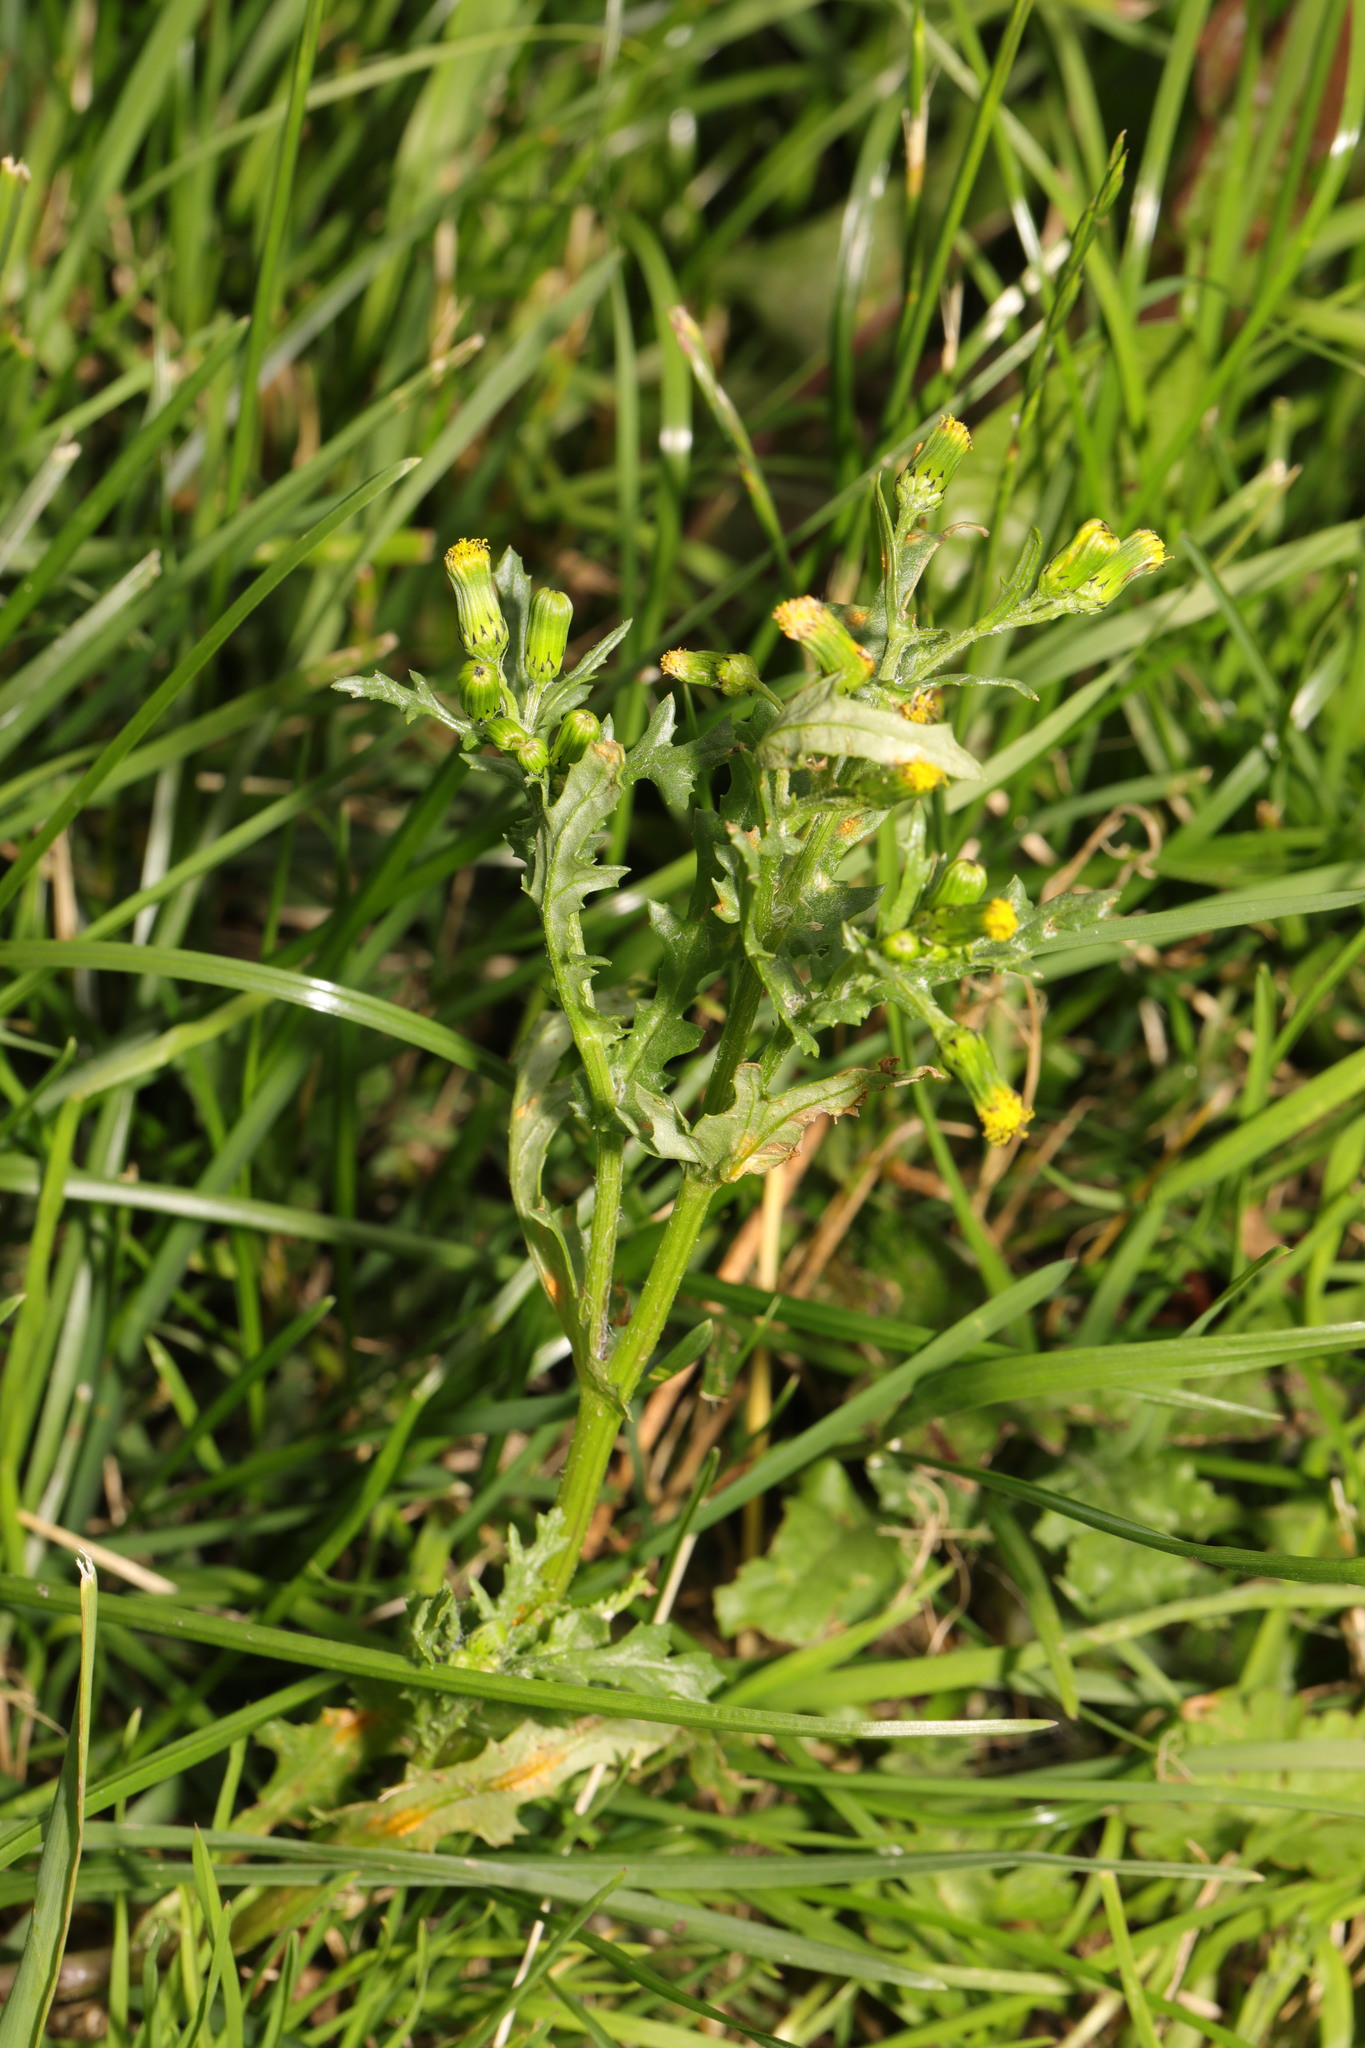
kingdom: Plantae
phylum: Tracheophyta
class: Magnoliopsida
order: Asterales
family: Asteraceae
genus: Senecio
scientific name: Senecio vulgaris
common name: Old-man-in-the-spring
